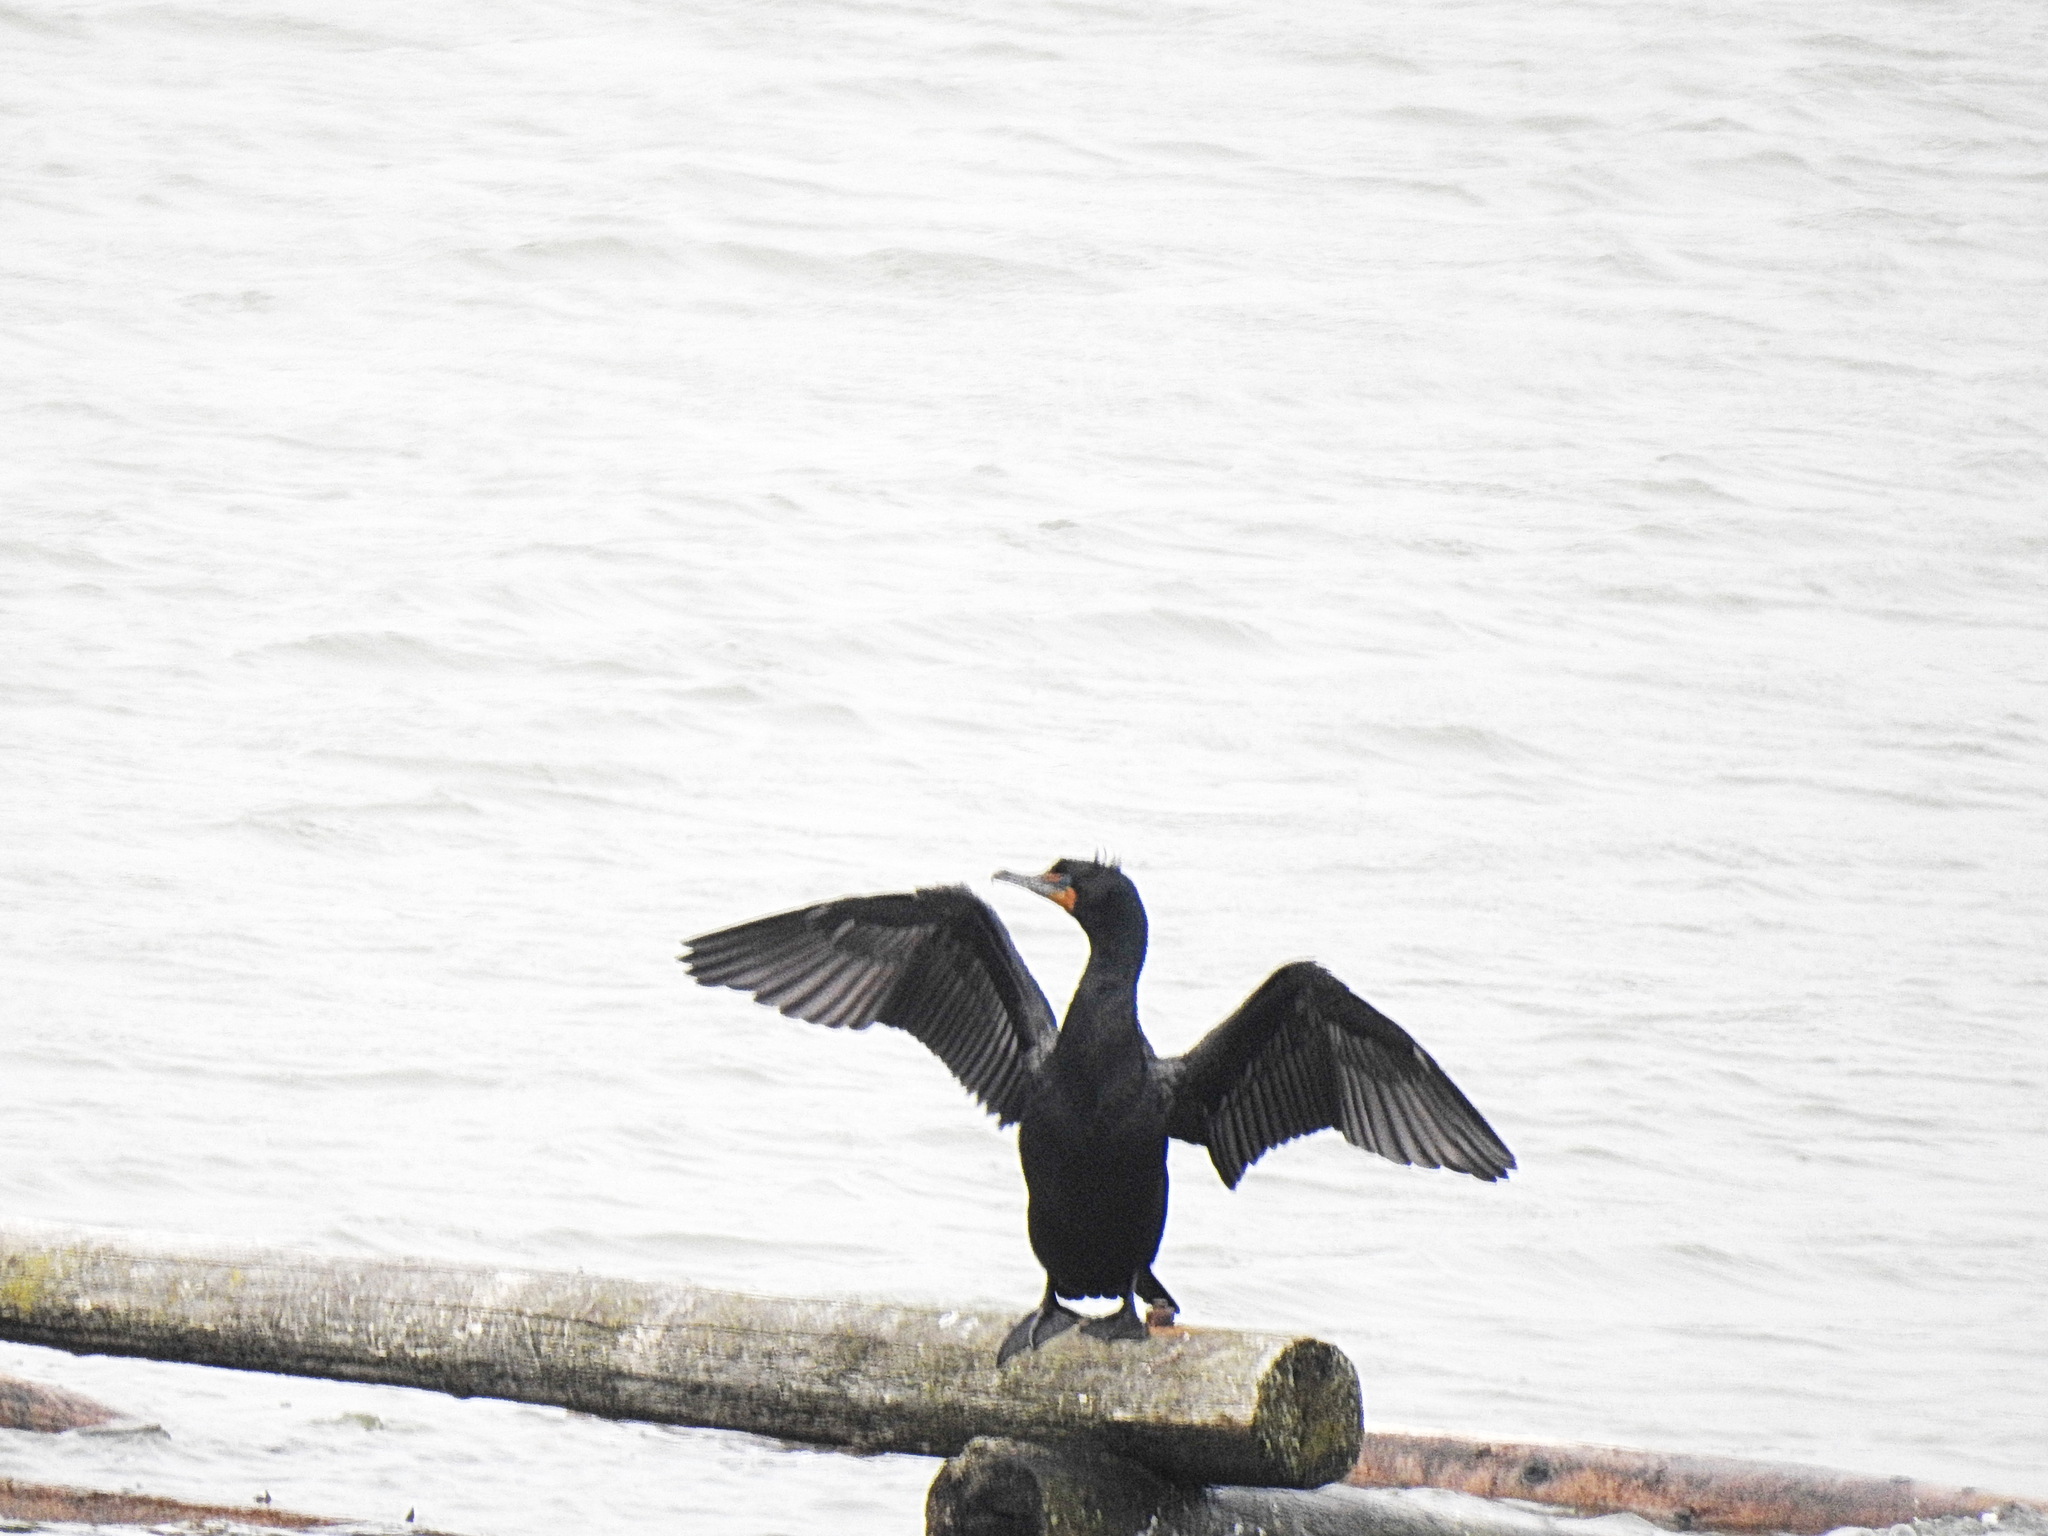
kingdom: Animalia
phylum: Chordata
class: Aves
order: Suliformes
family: Phalacrocoracidae
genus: Phalacrocorax
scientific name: Phalacrocorax auritus
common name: Double-crested cormorant
